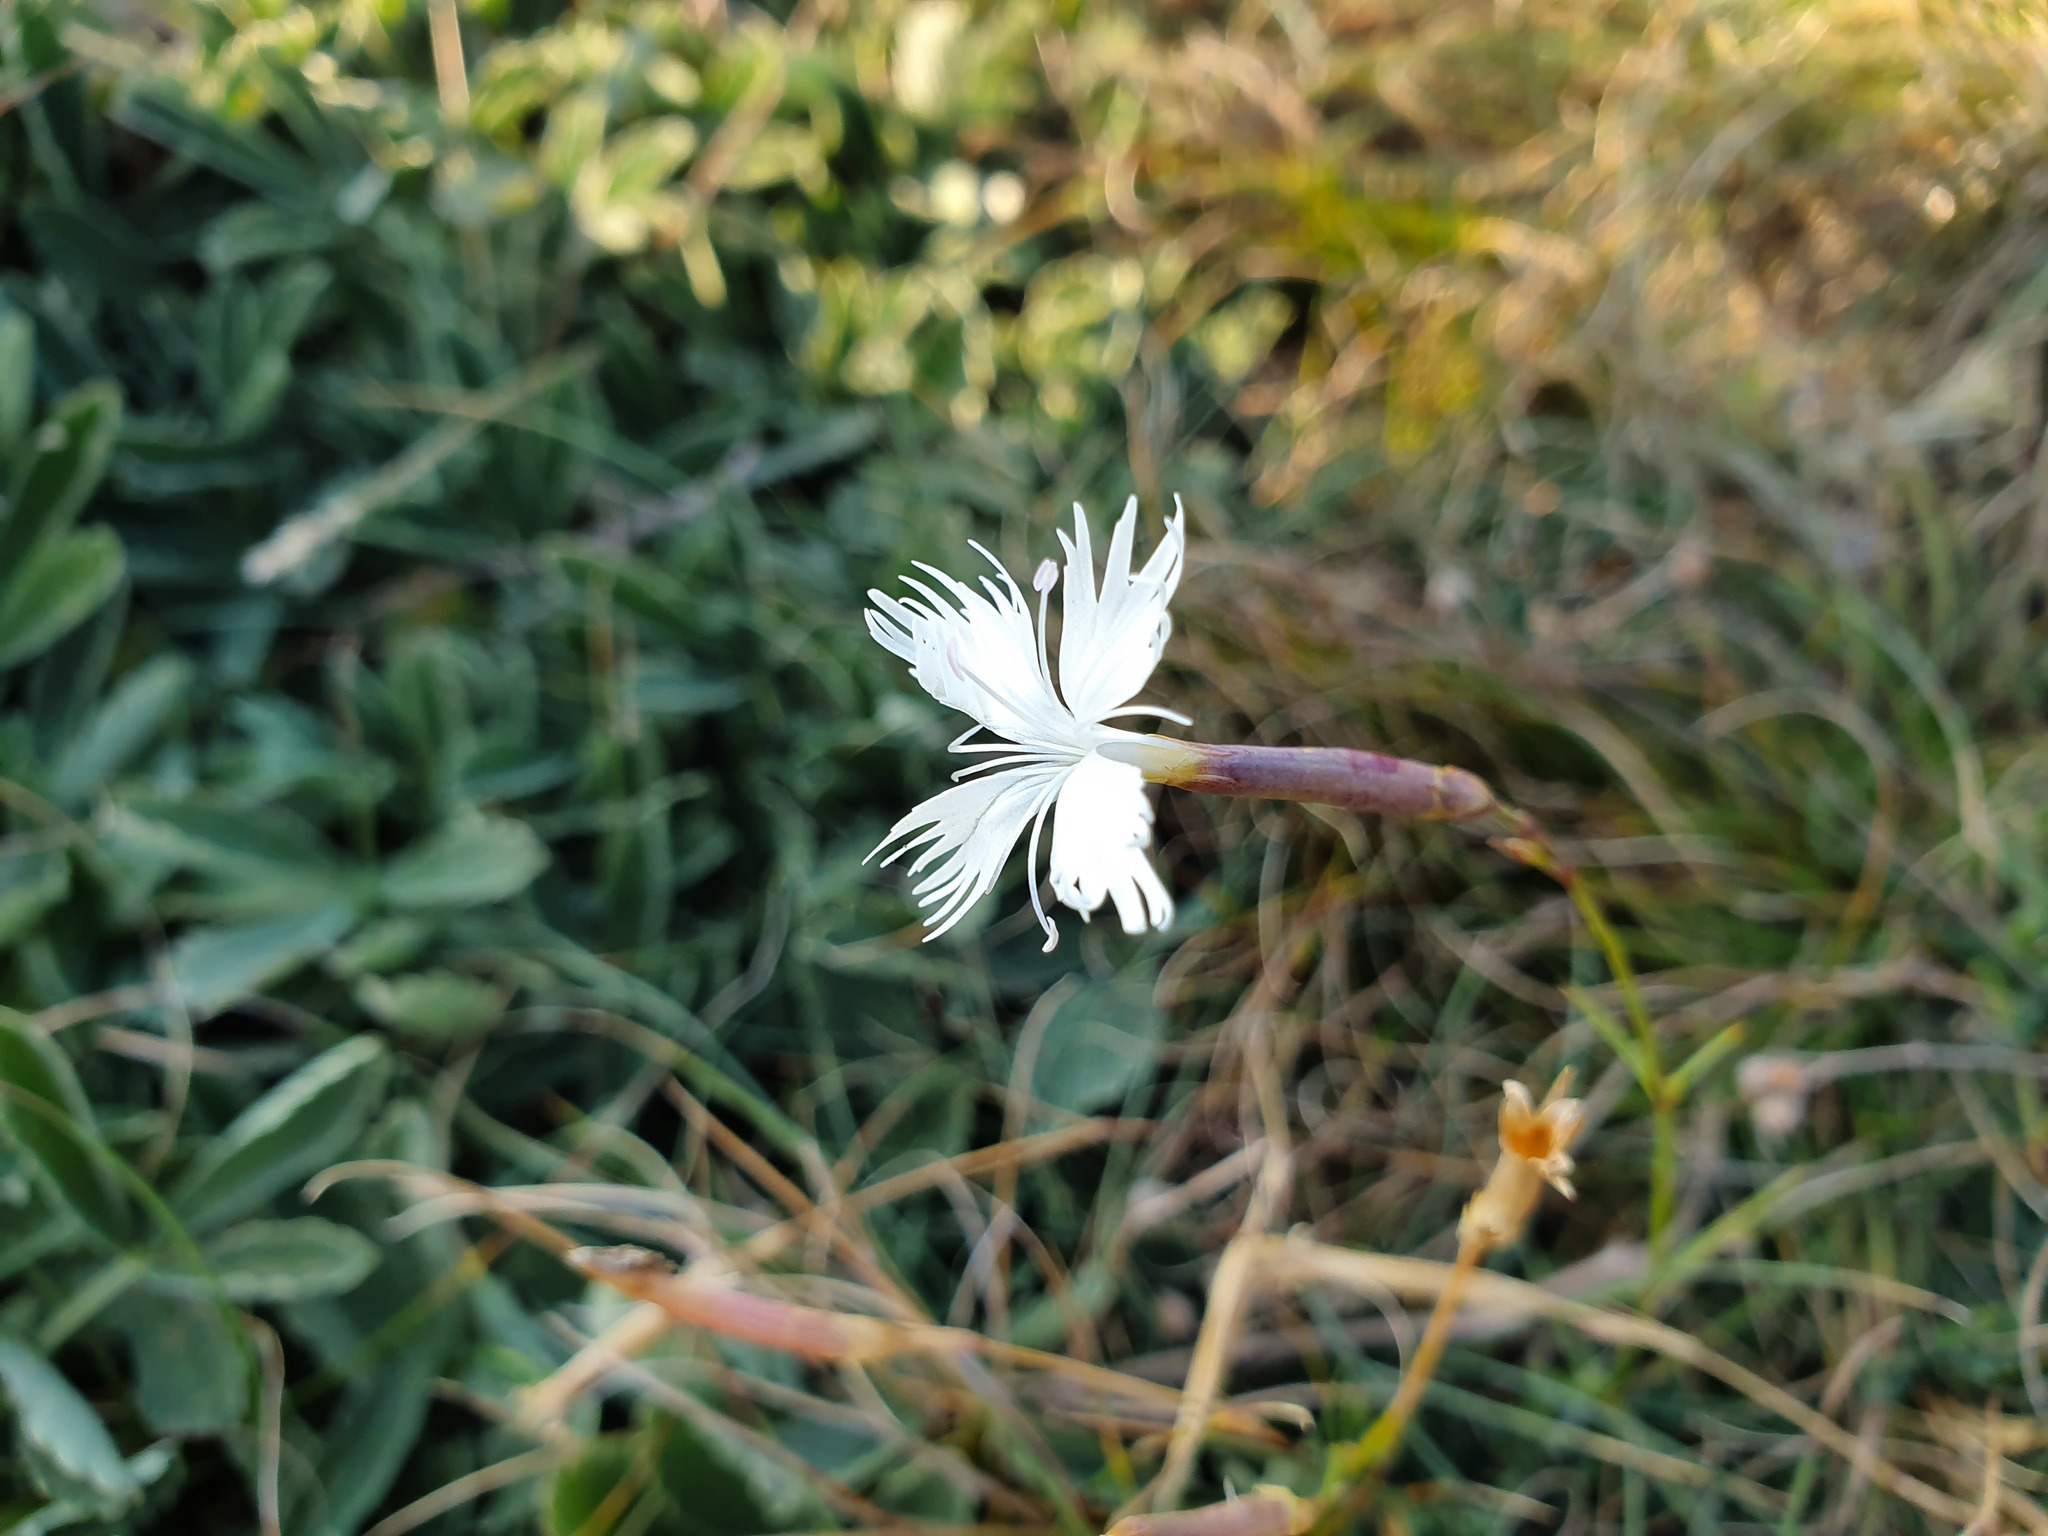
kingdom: Plantae
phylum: Tracheophyta
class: Magnoliopsida
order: Caryophyllales
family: Caryophyllaceae
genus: Dianthus
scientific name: Dianthus petraeus
